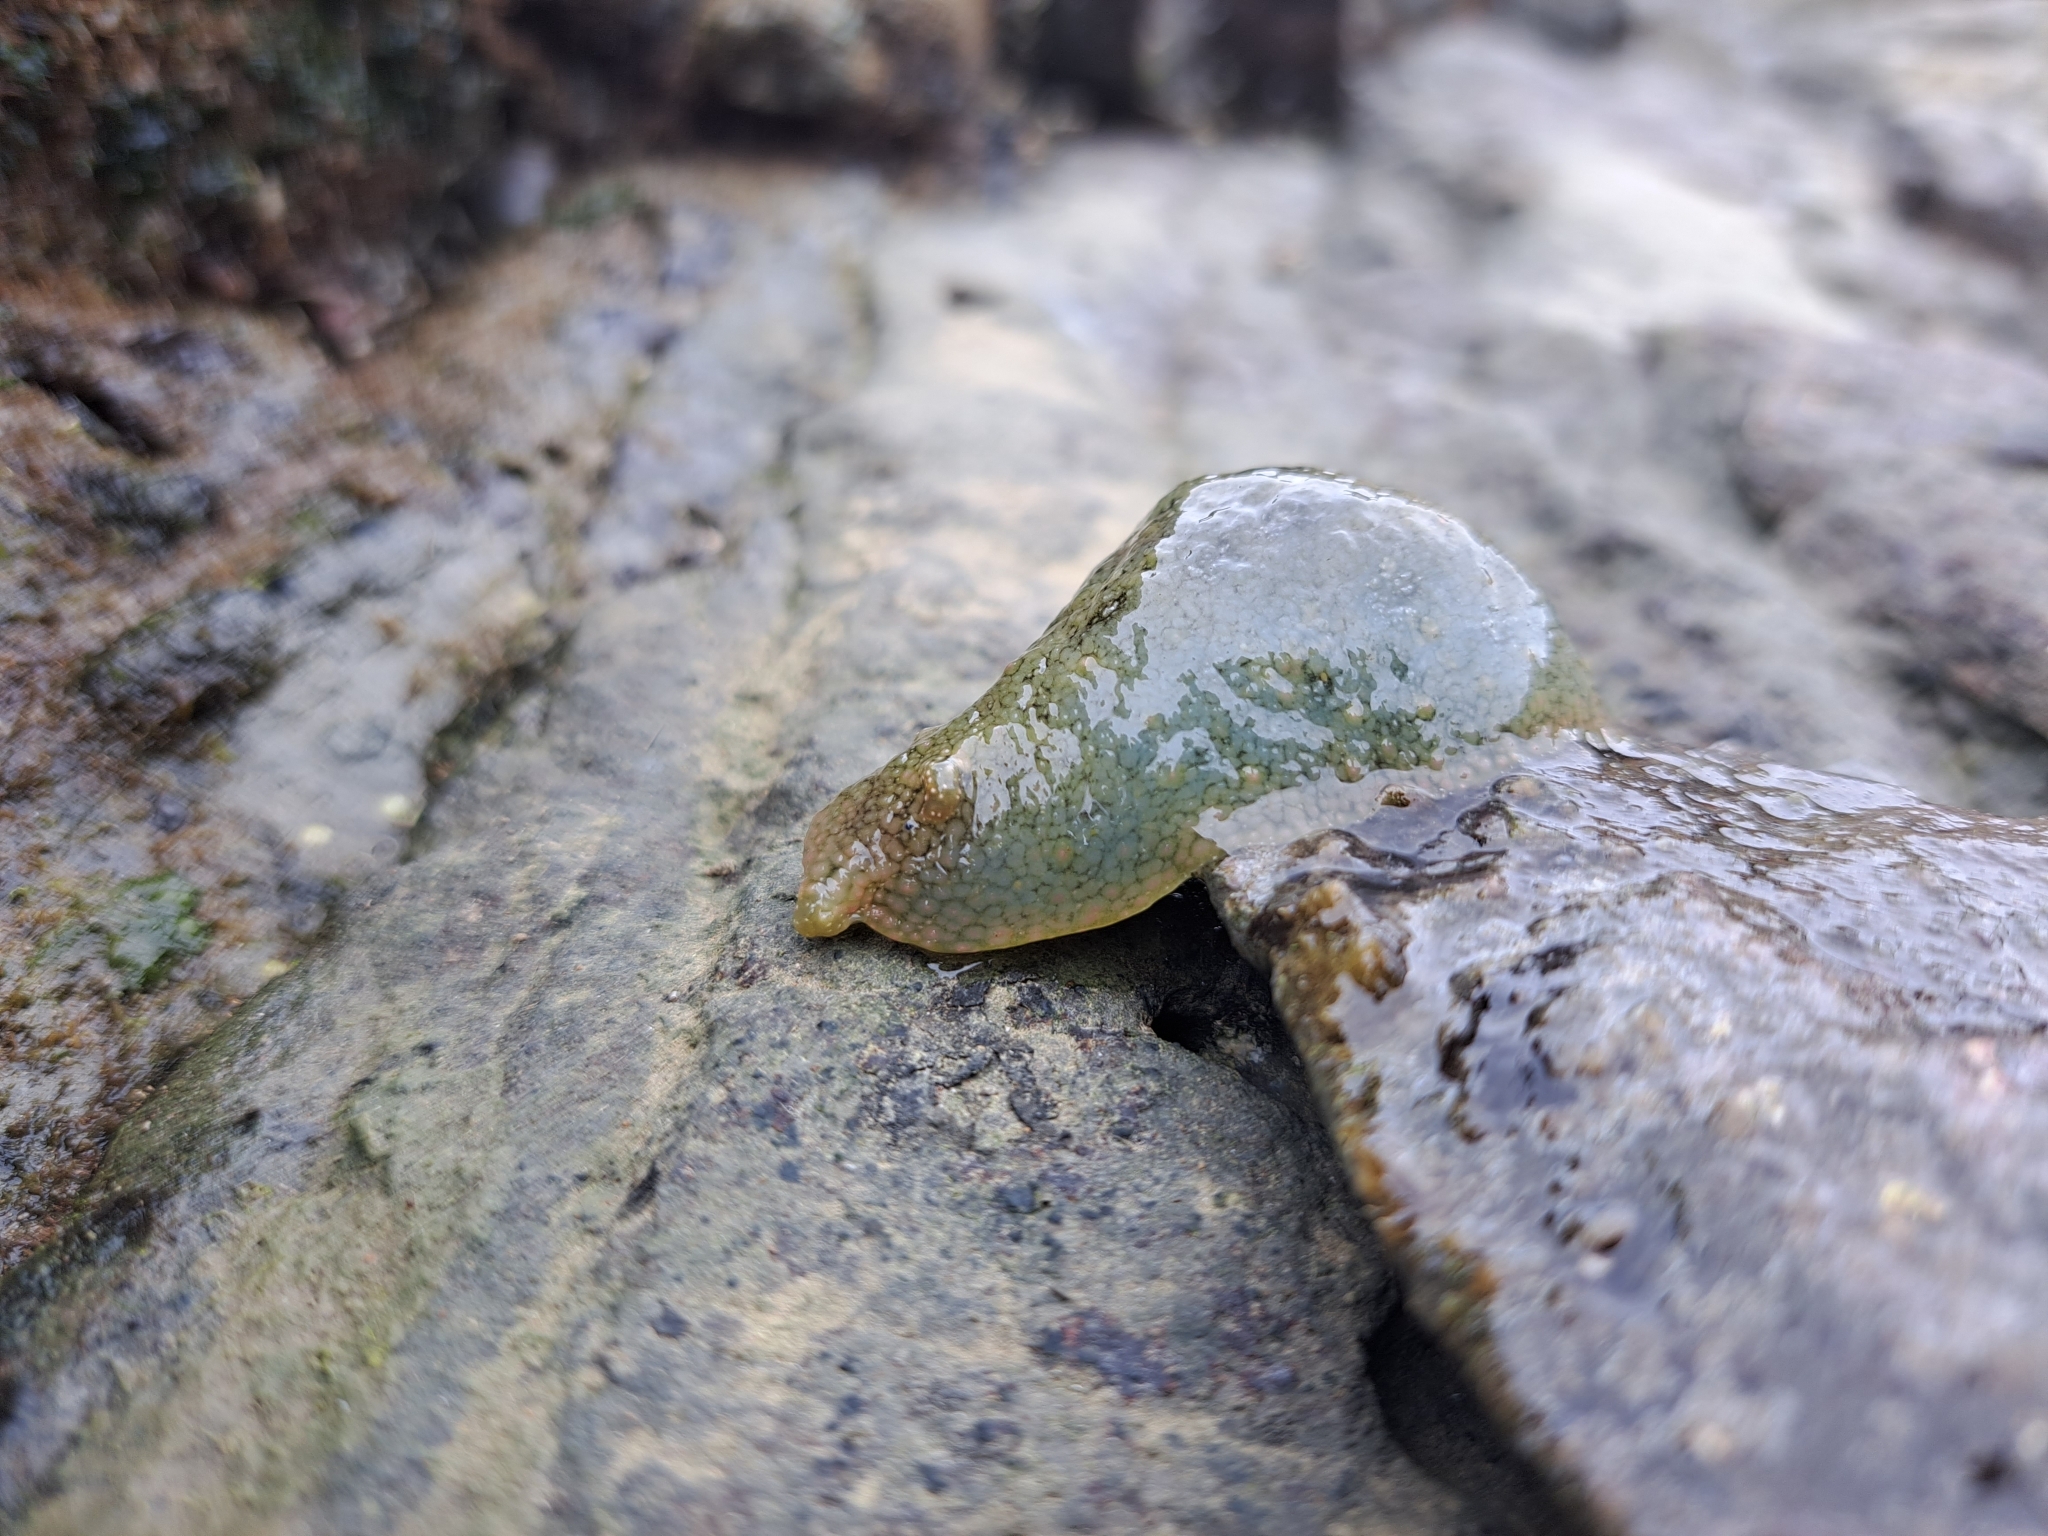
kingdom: Animalia
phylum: Mollusca
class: Gastropoda
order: Aplysiida
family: Aplysiidae
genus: Dolabrifera
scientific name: Dolabrifera nicaraguana
